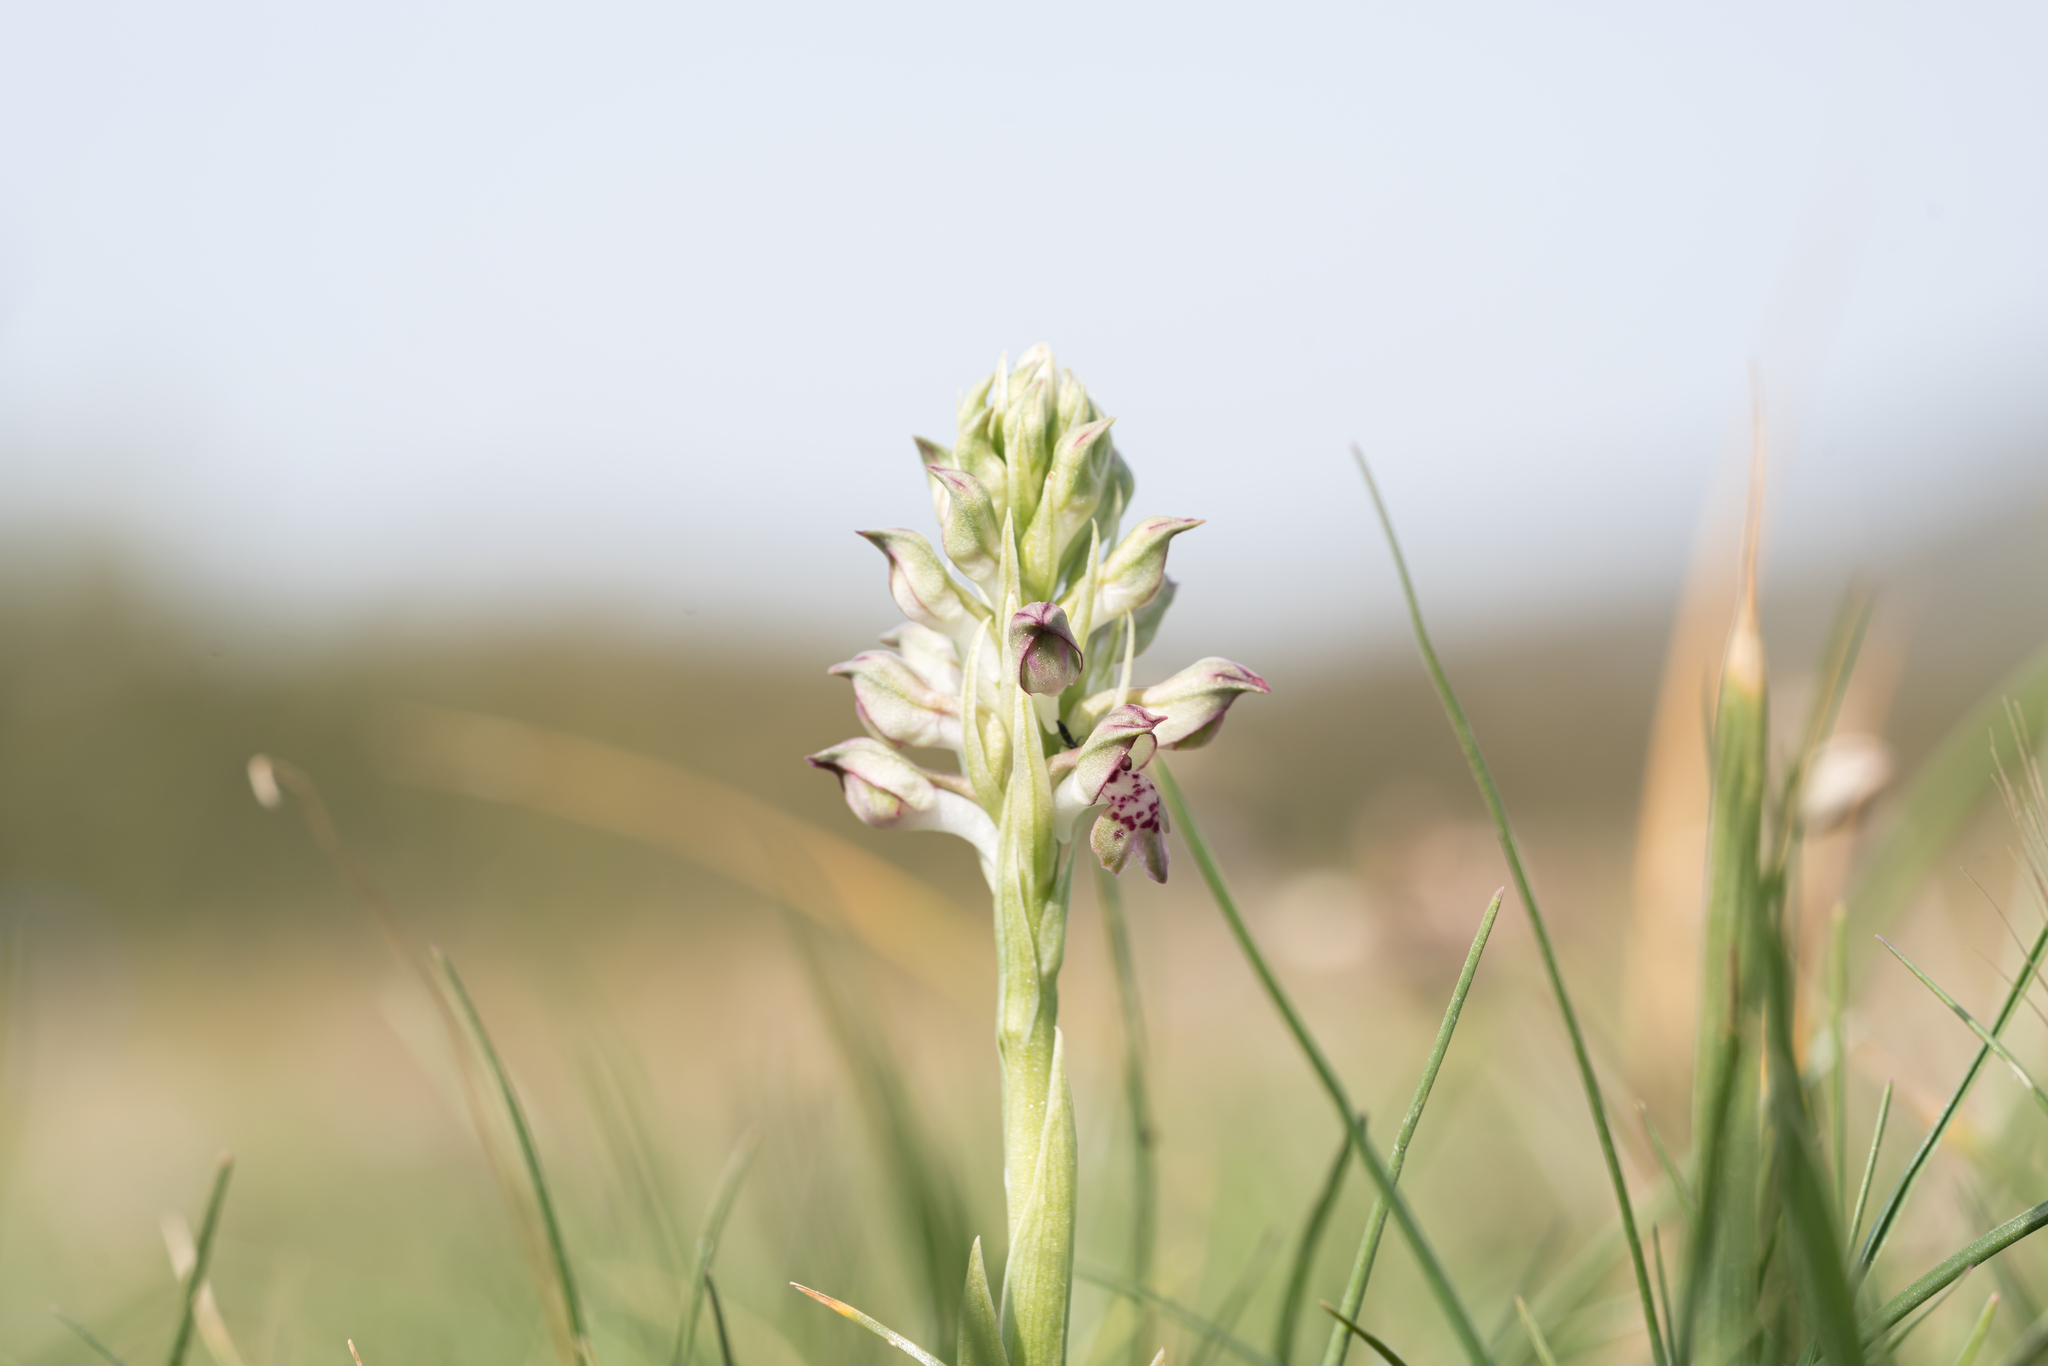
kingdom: Plantae
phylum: Tracheophyta
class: Liliopsida
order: Asparagales
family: Orchidaceae
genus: Anacamptis
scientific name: Anacamptis coriophora
